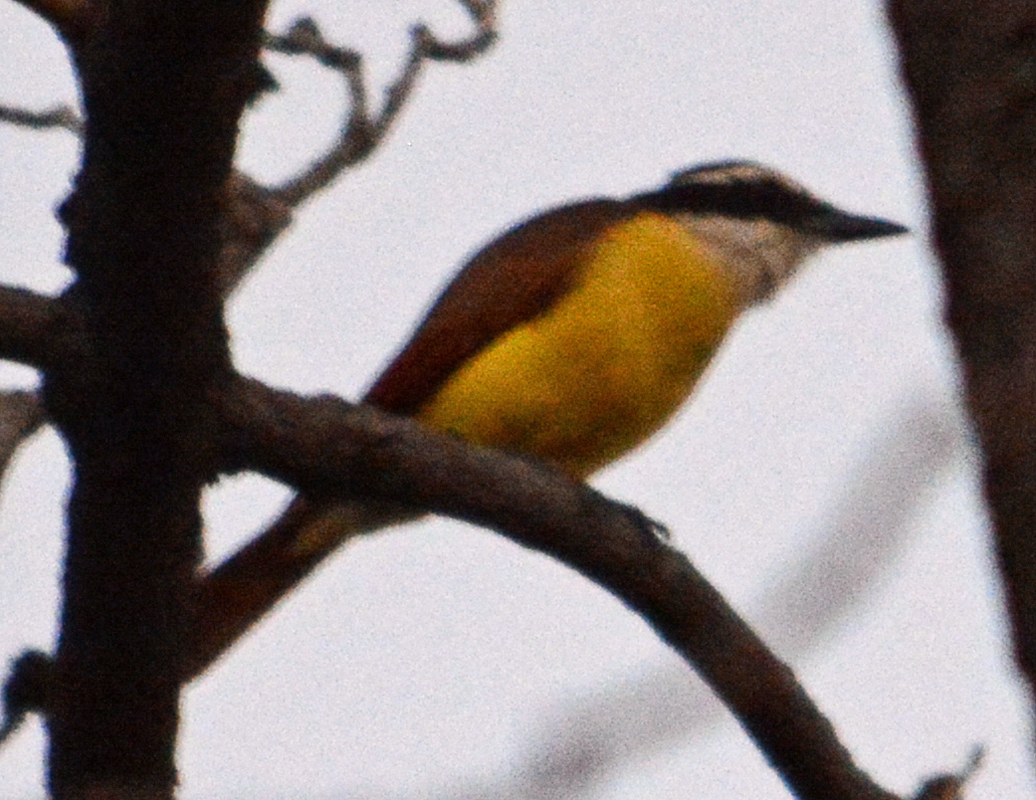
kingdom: Animalia
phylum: Chordata
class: Aves
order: Passeriformes
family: Tyrannidae
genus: Pitangus
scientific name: Pitangus sulphuratus
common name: Great kiskadee
